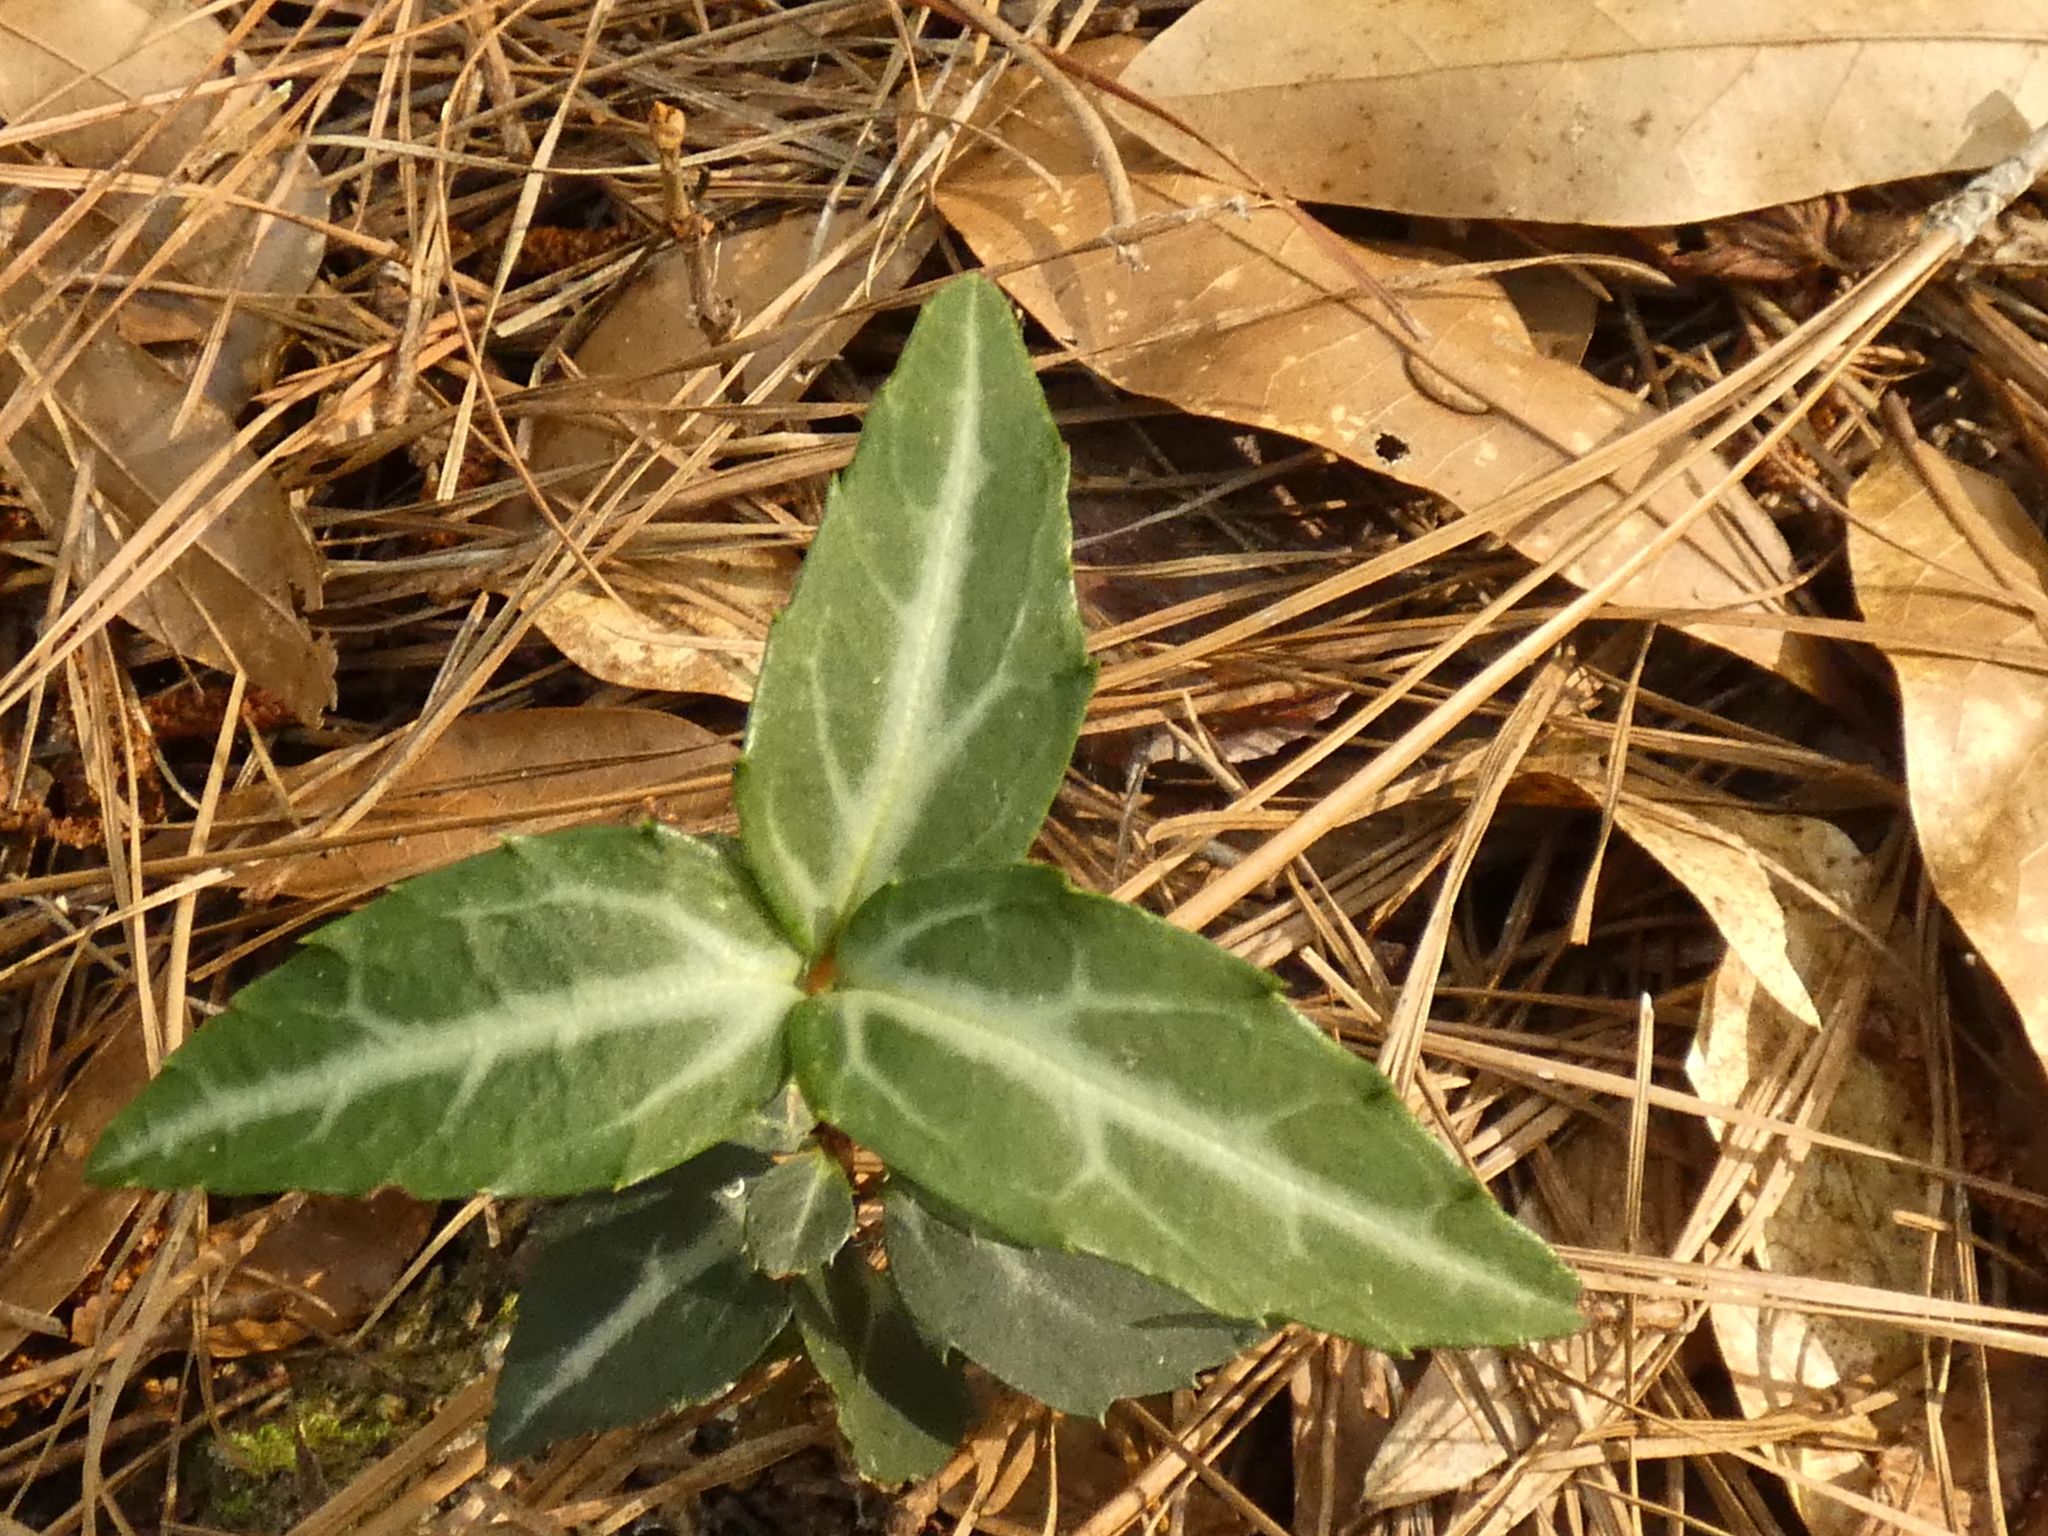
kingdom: Plantae
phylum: Tracheophyta
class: Magnoliopsida
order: Ericales
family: Ericaceae
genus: Chimaphila
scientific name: Chimaphila maculata
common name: Spotted pipsissewa
